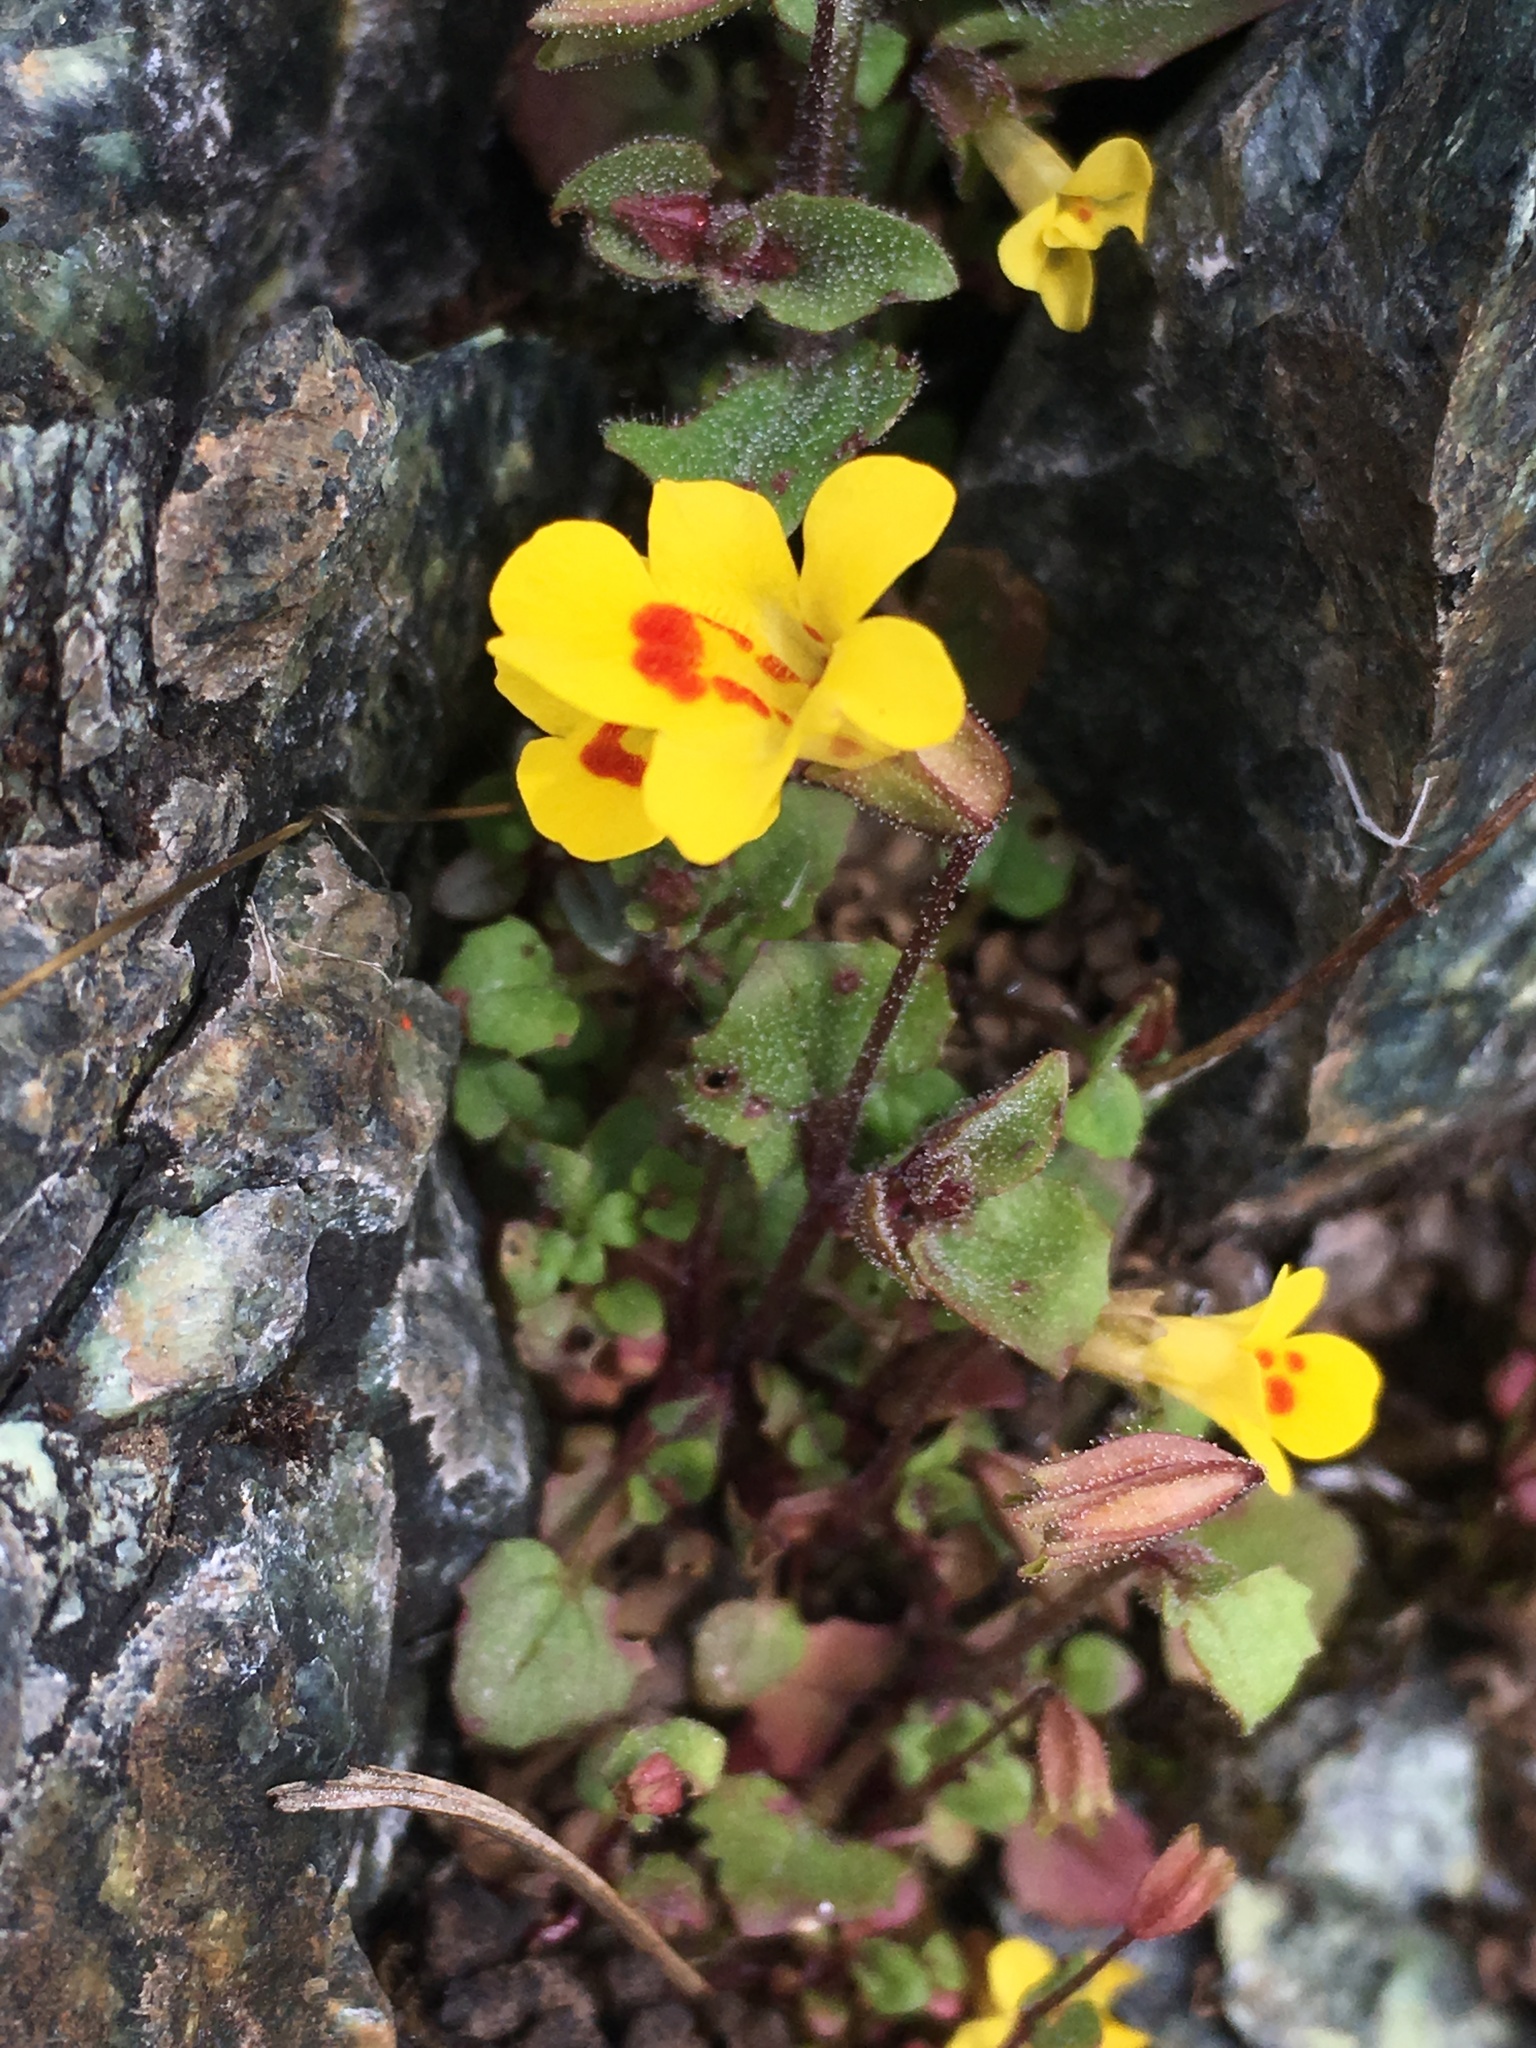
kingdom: Plantae
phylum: Tracheophyta
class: Magnoliopsida
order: Lamiales
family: Phrymaceae
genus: Erythranthe
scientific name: Erythranthe marmorata
